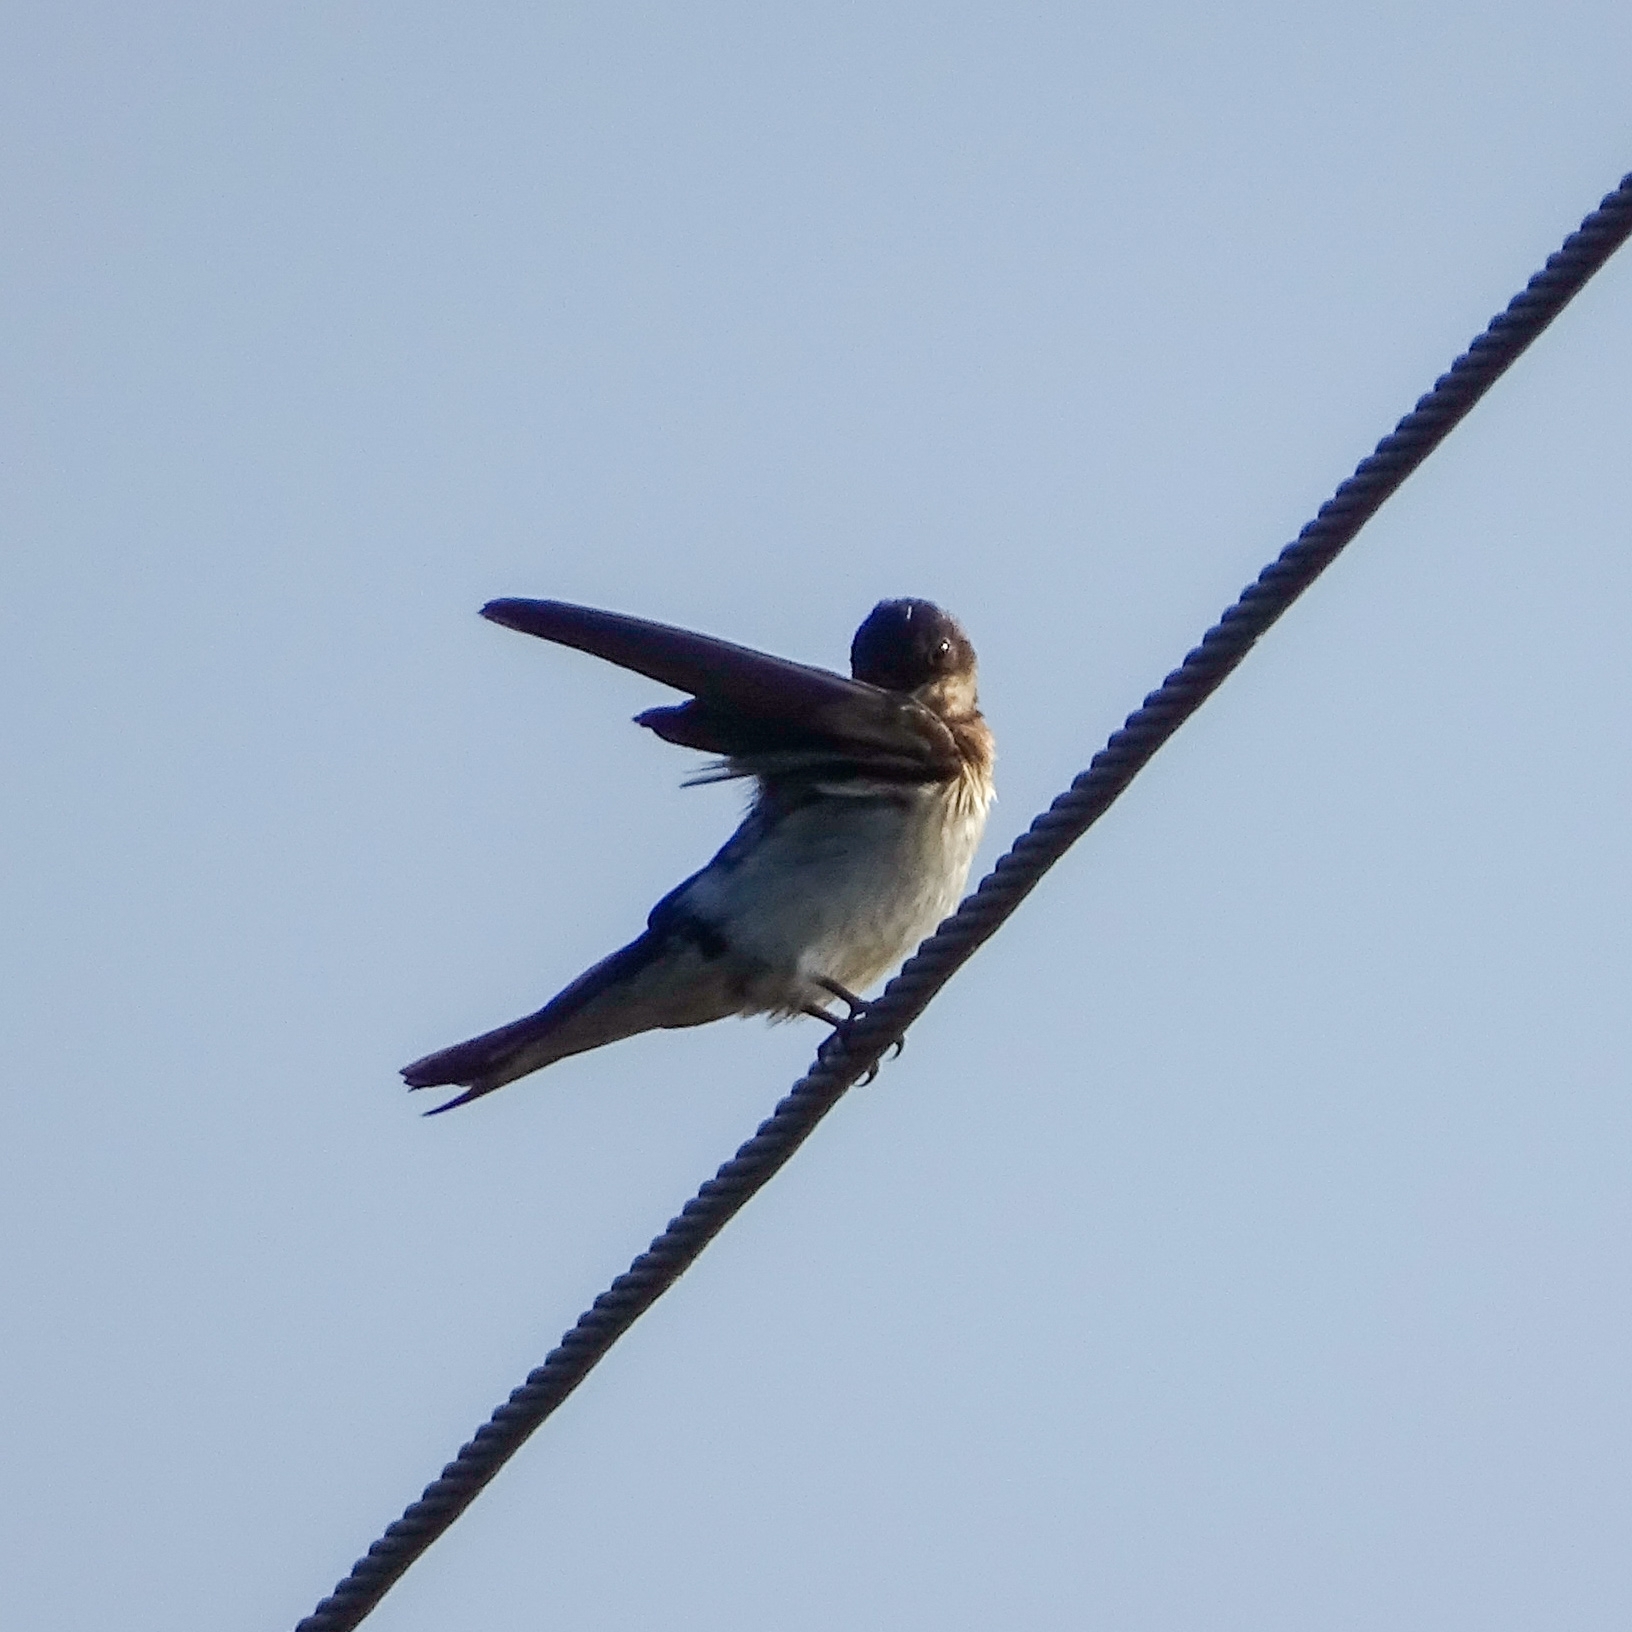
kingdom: Animalia
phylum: Chordata
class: Aves
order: Passeriformes
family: Hirundinidae
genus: Hirundo
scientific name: Hirundo rustica
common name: Barn swallow
